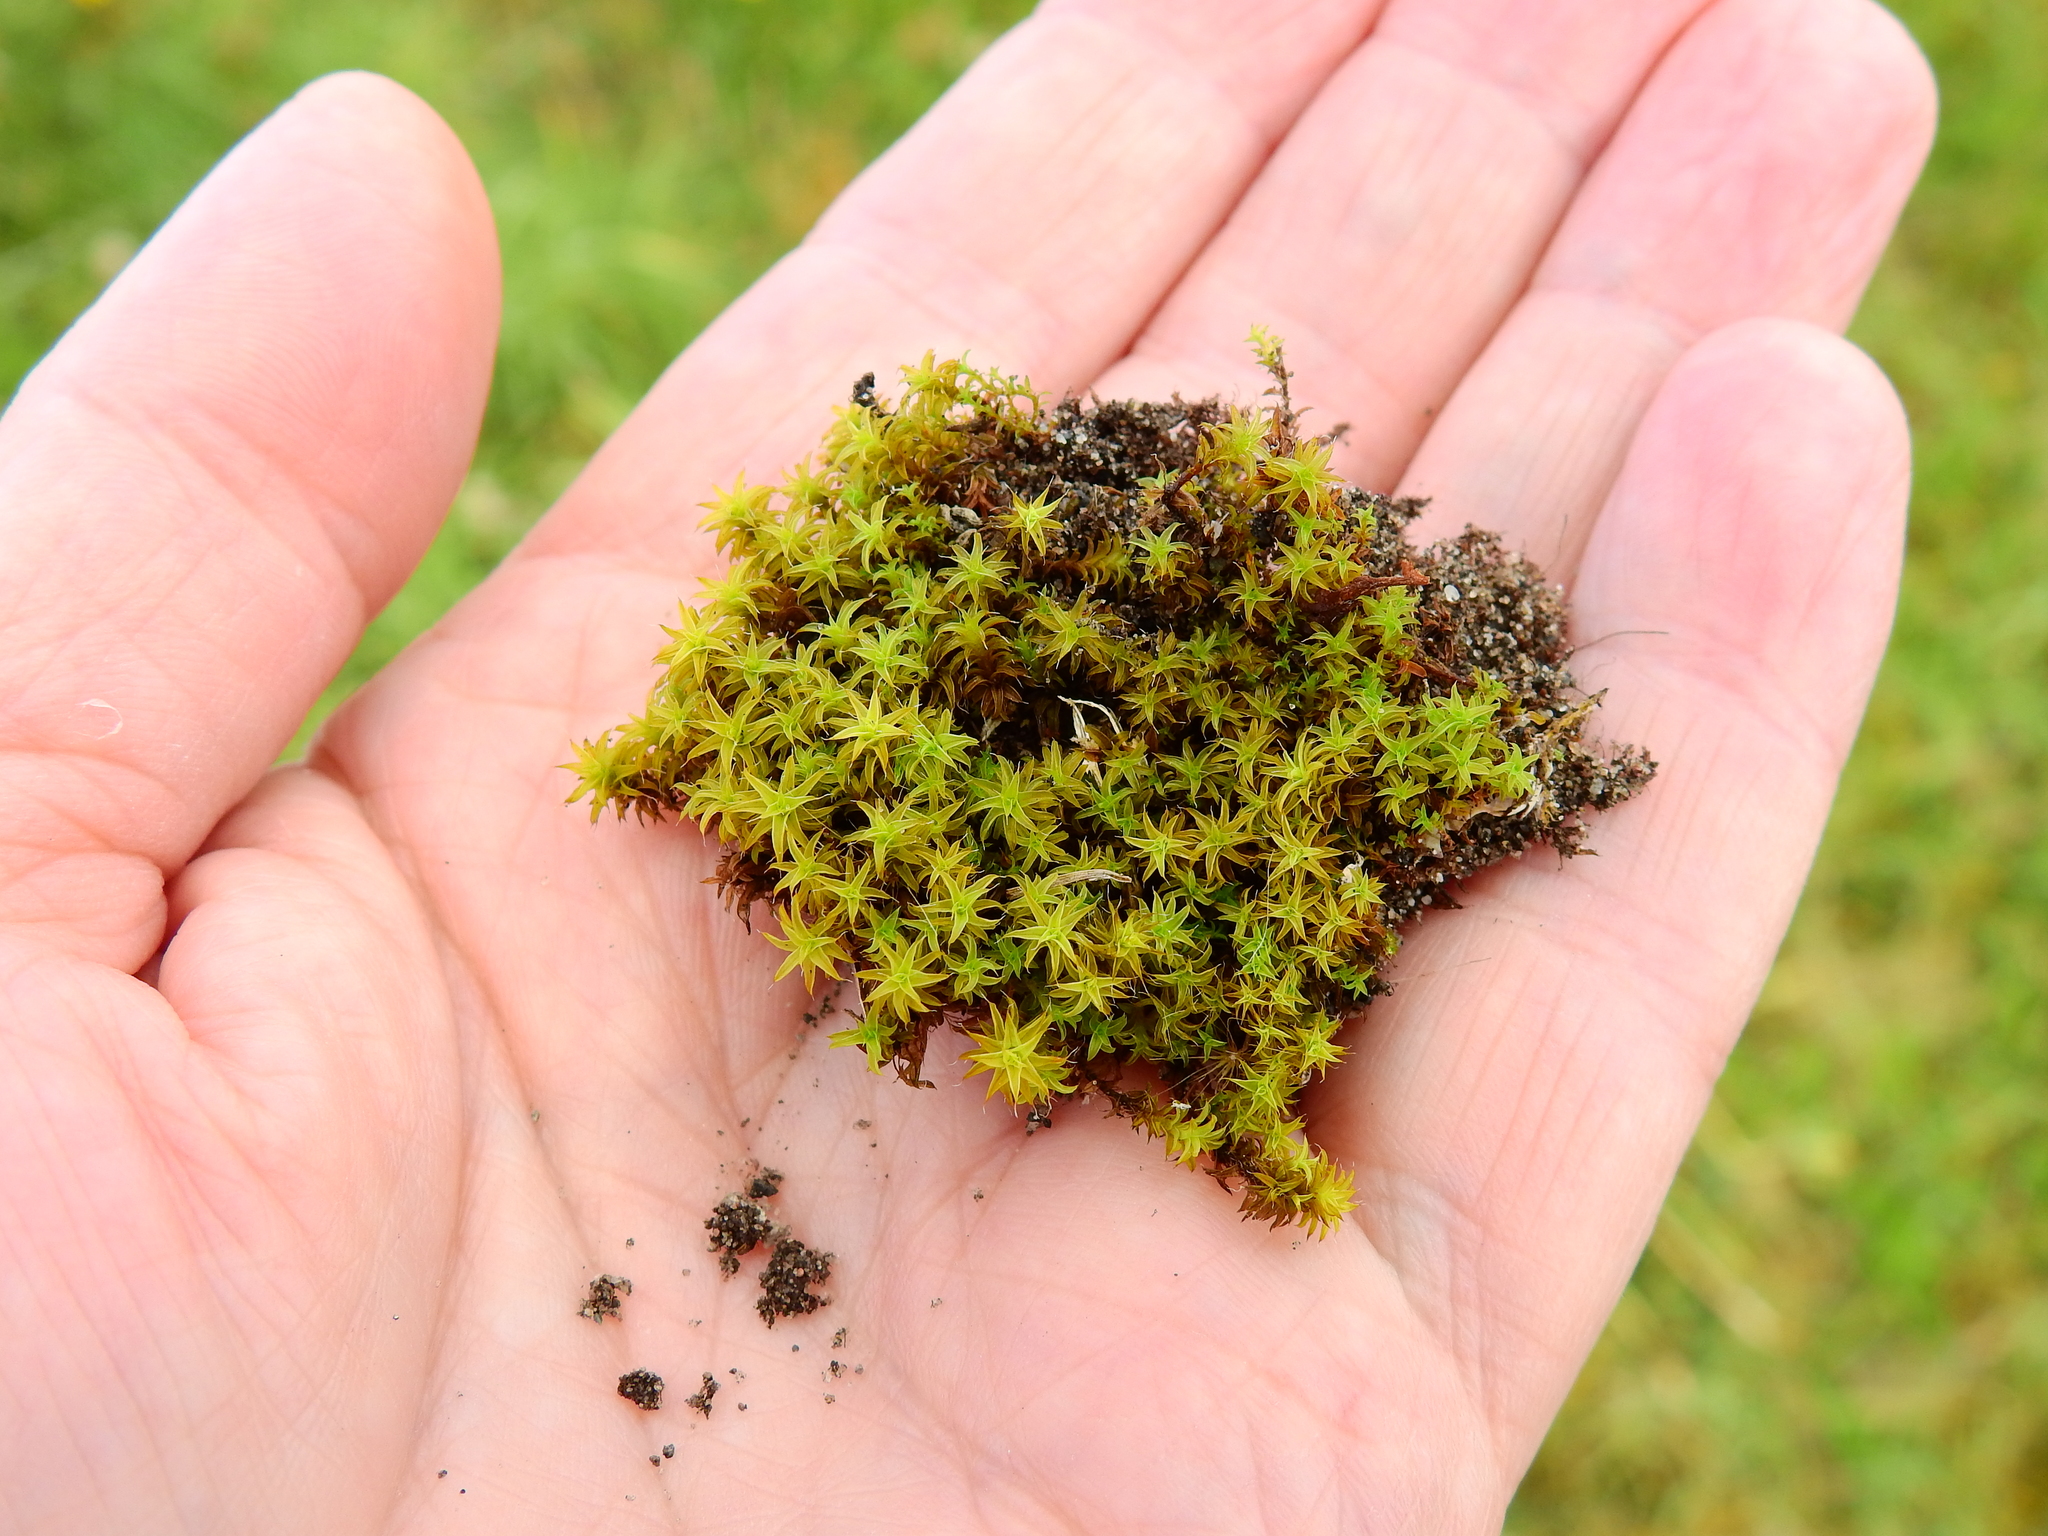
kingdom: Plantae
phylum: Bryophyta
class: Bryopsida
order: Pottiales
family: Pottiaceae
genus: Syntrichia
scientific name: Syntrichia ruralis
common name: Sidewalk screw moss
